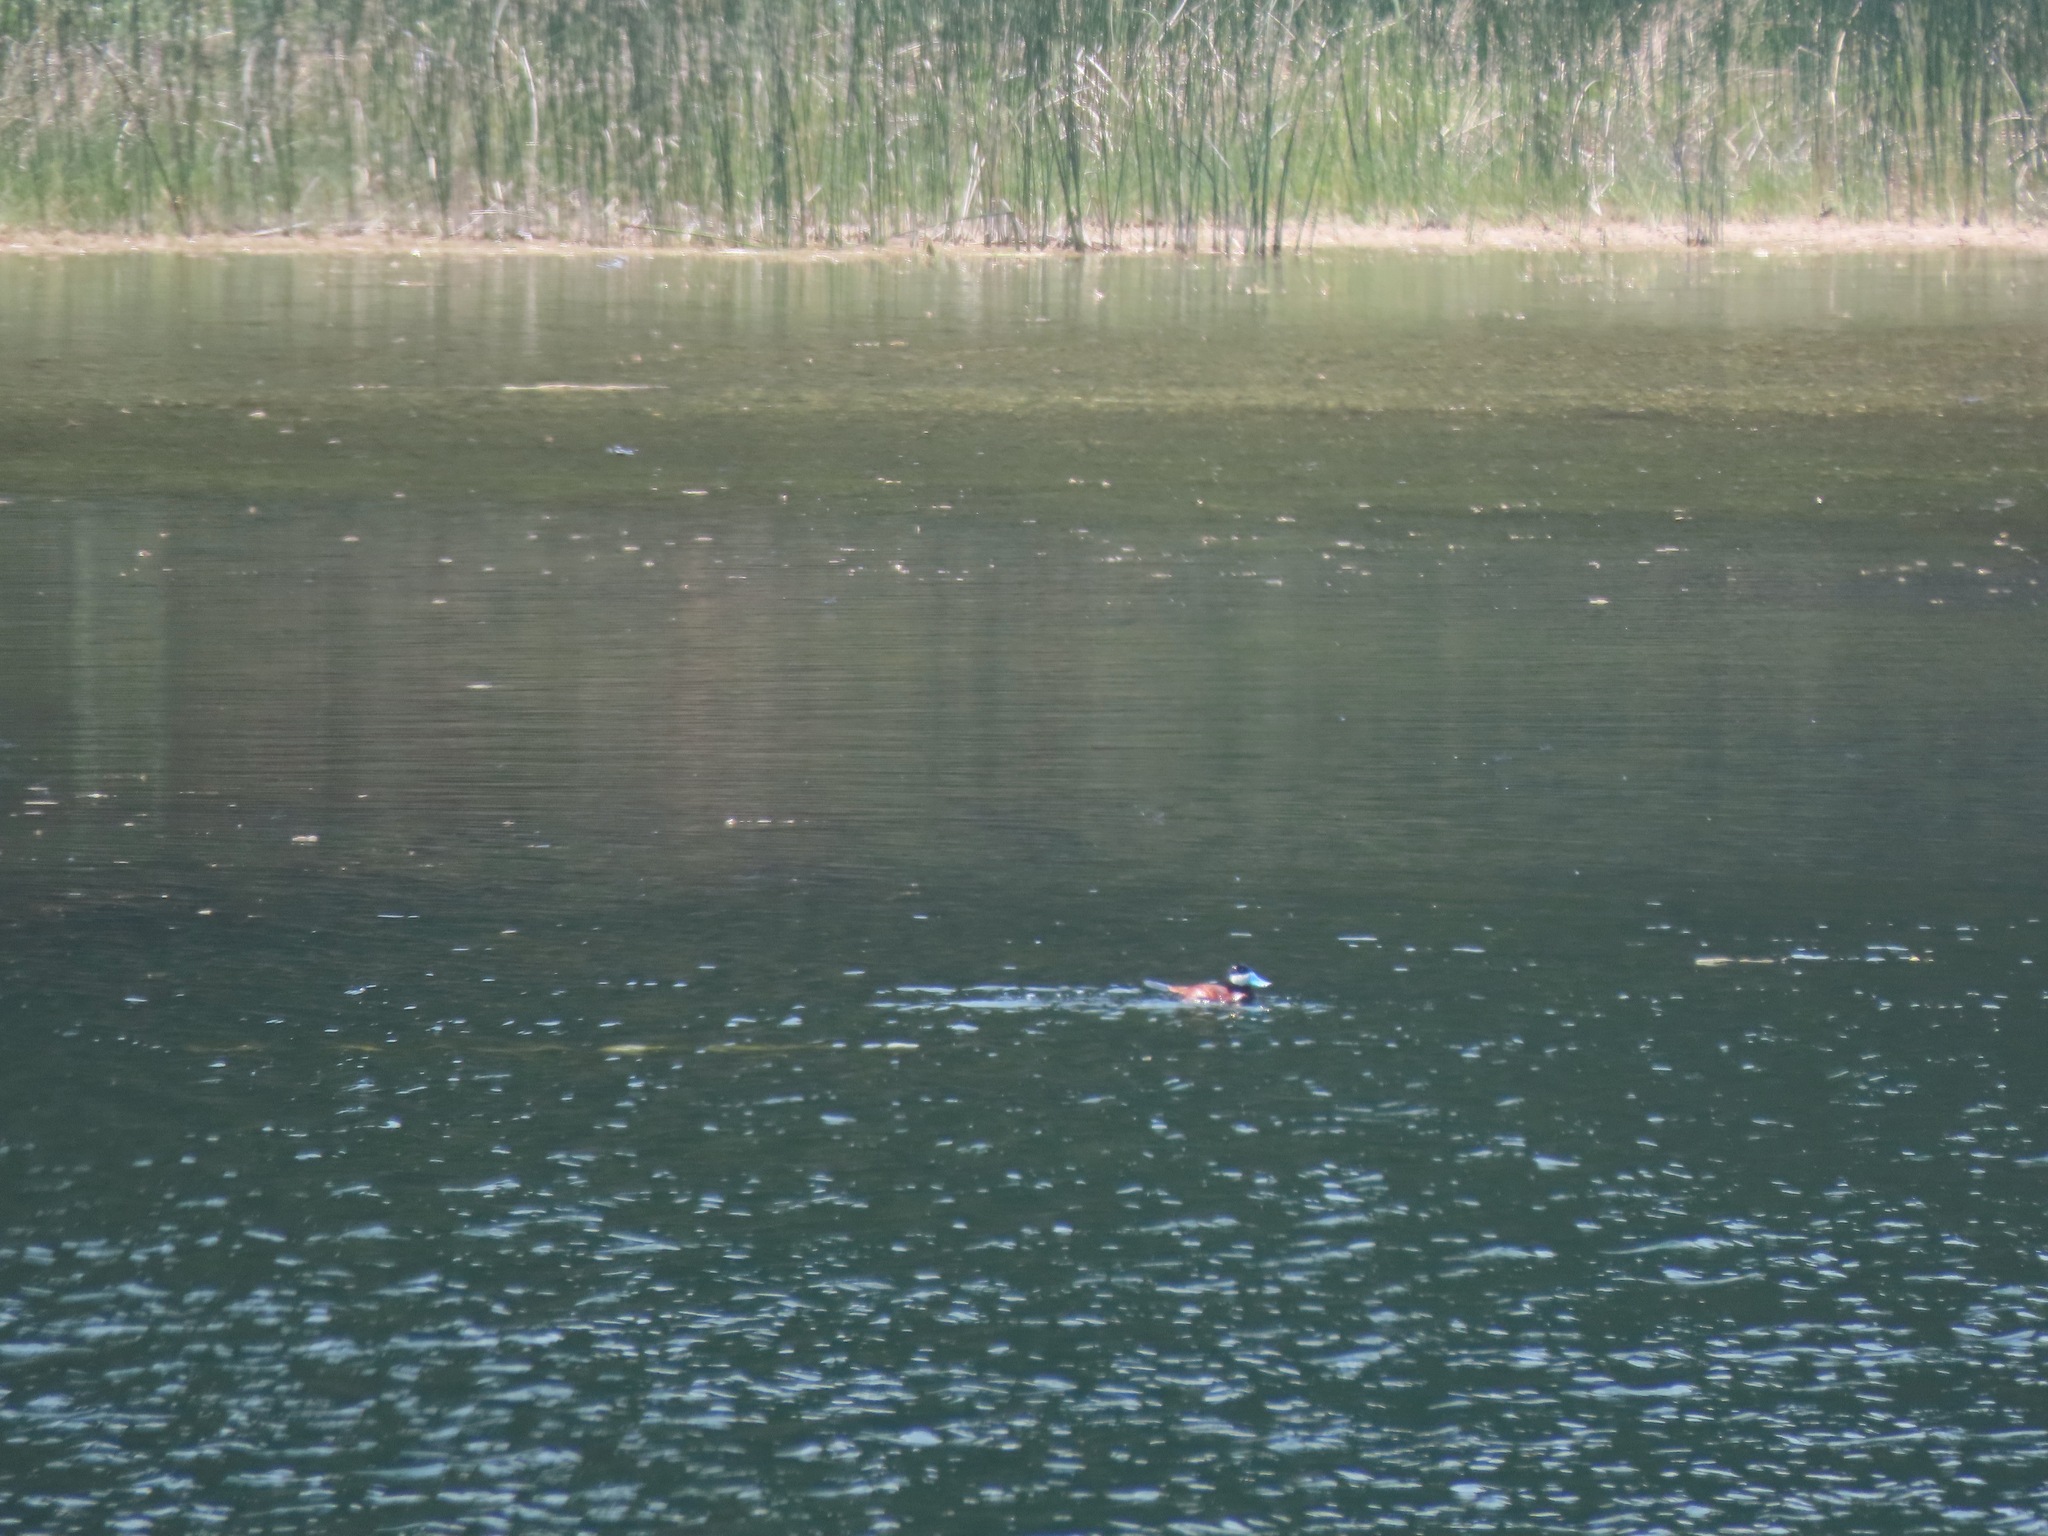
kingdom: Animalia
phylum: Chordata
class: Aves
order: Anseriformes
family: Anatidae
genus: Oxyura
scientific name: Oxyura jamaicensis
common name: Ruddy duck
